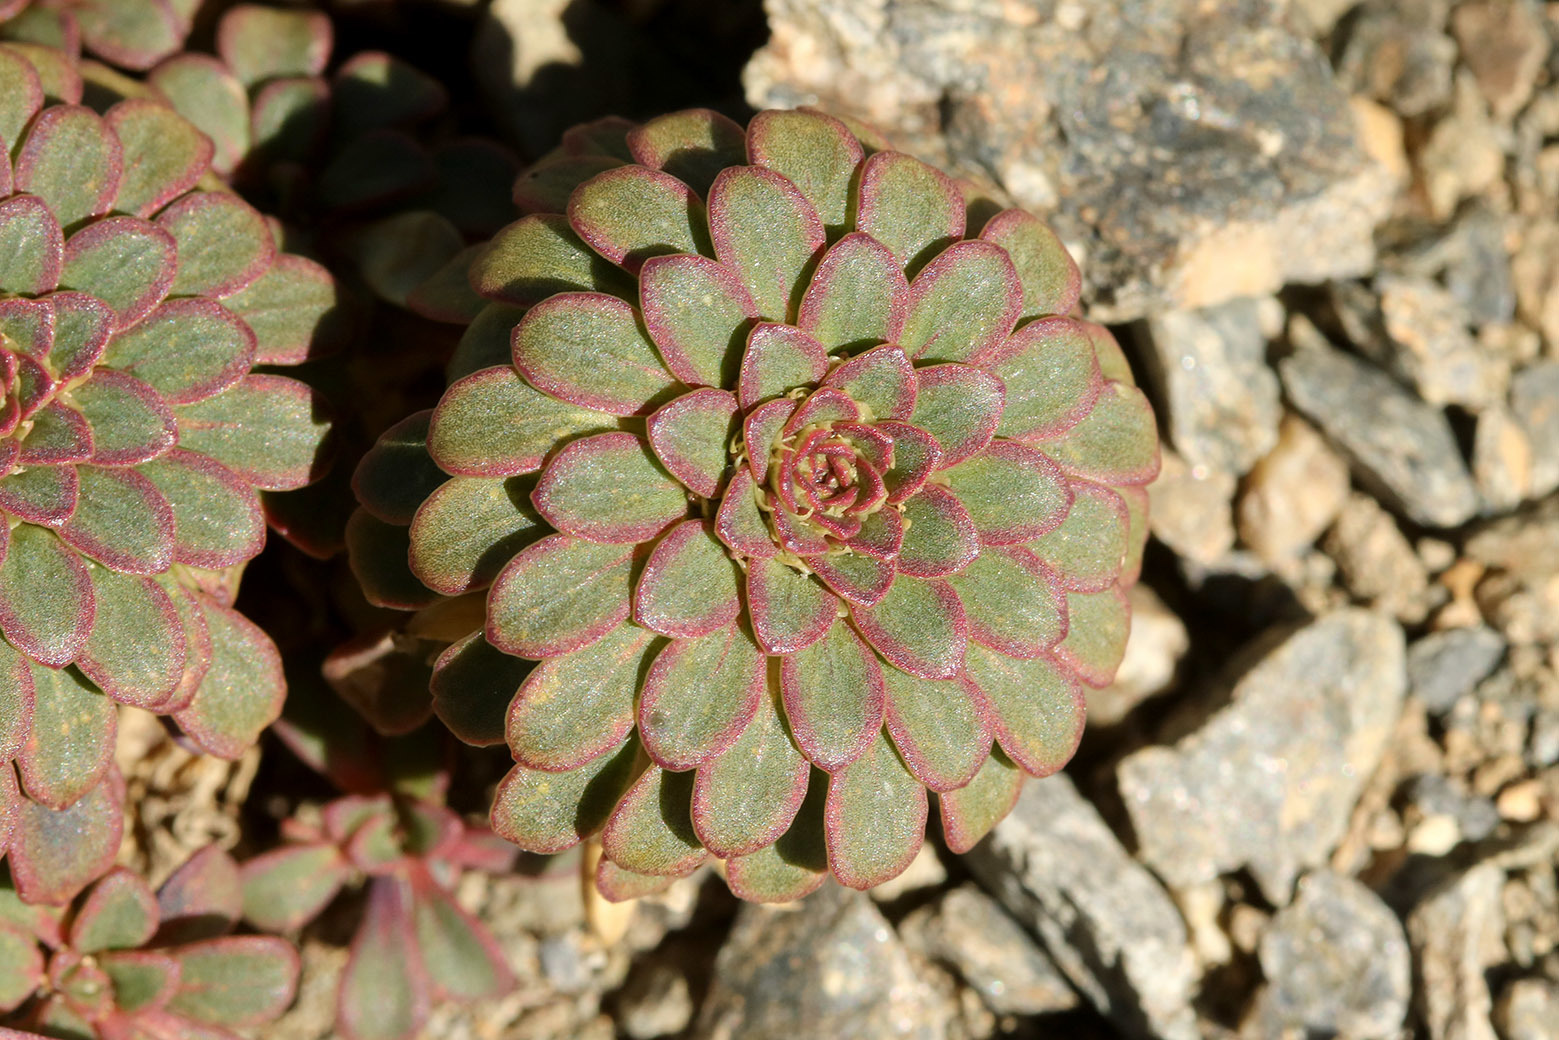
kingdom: Plantae
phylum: Tracheophyta
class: Magnoliopsida
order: Malpighiales
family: Violaceae
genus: Viola
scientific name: Viola sacculus
